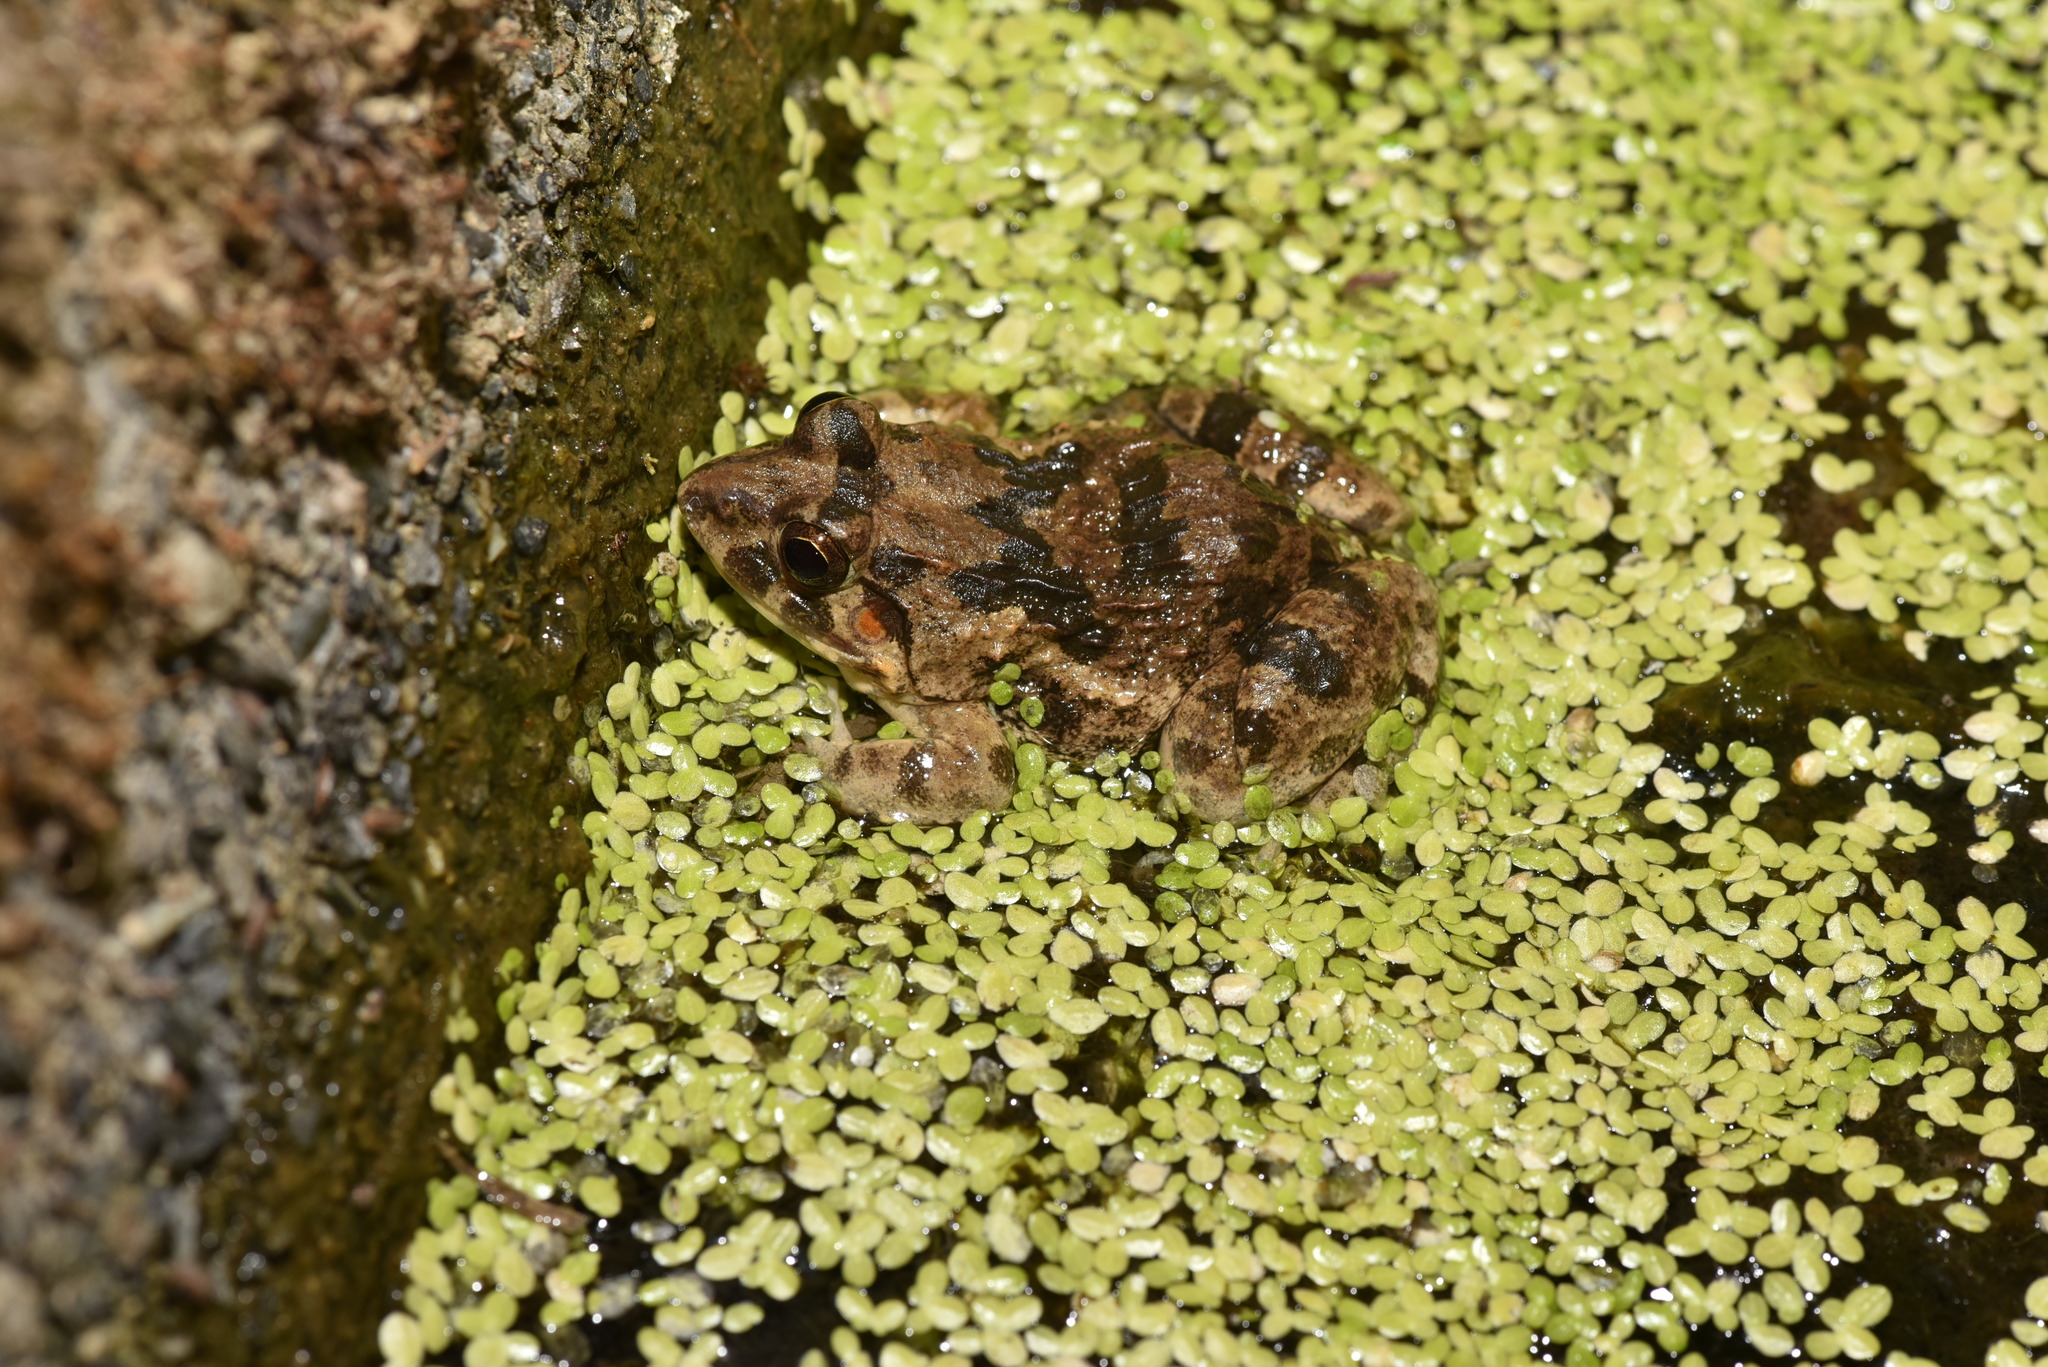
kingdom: Animalia
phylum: Chordata
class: Amphibia
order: Anura
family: Dicroglossidae
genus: Fejervarya
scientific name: Fejervarya limnocharis
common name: Asian grass frog/common pond frog/field frog/grass frog/indian rice frog
